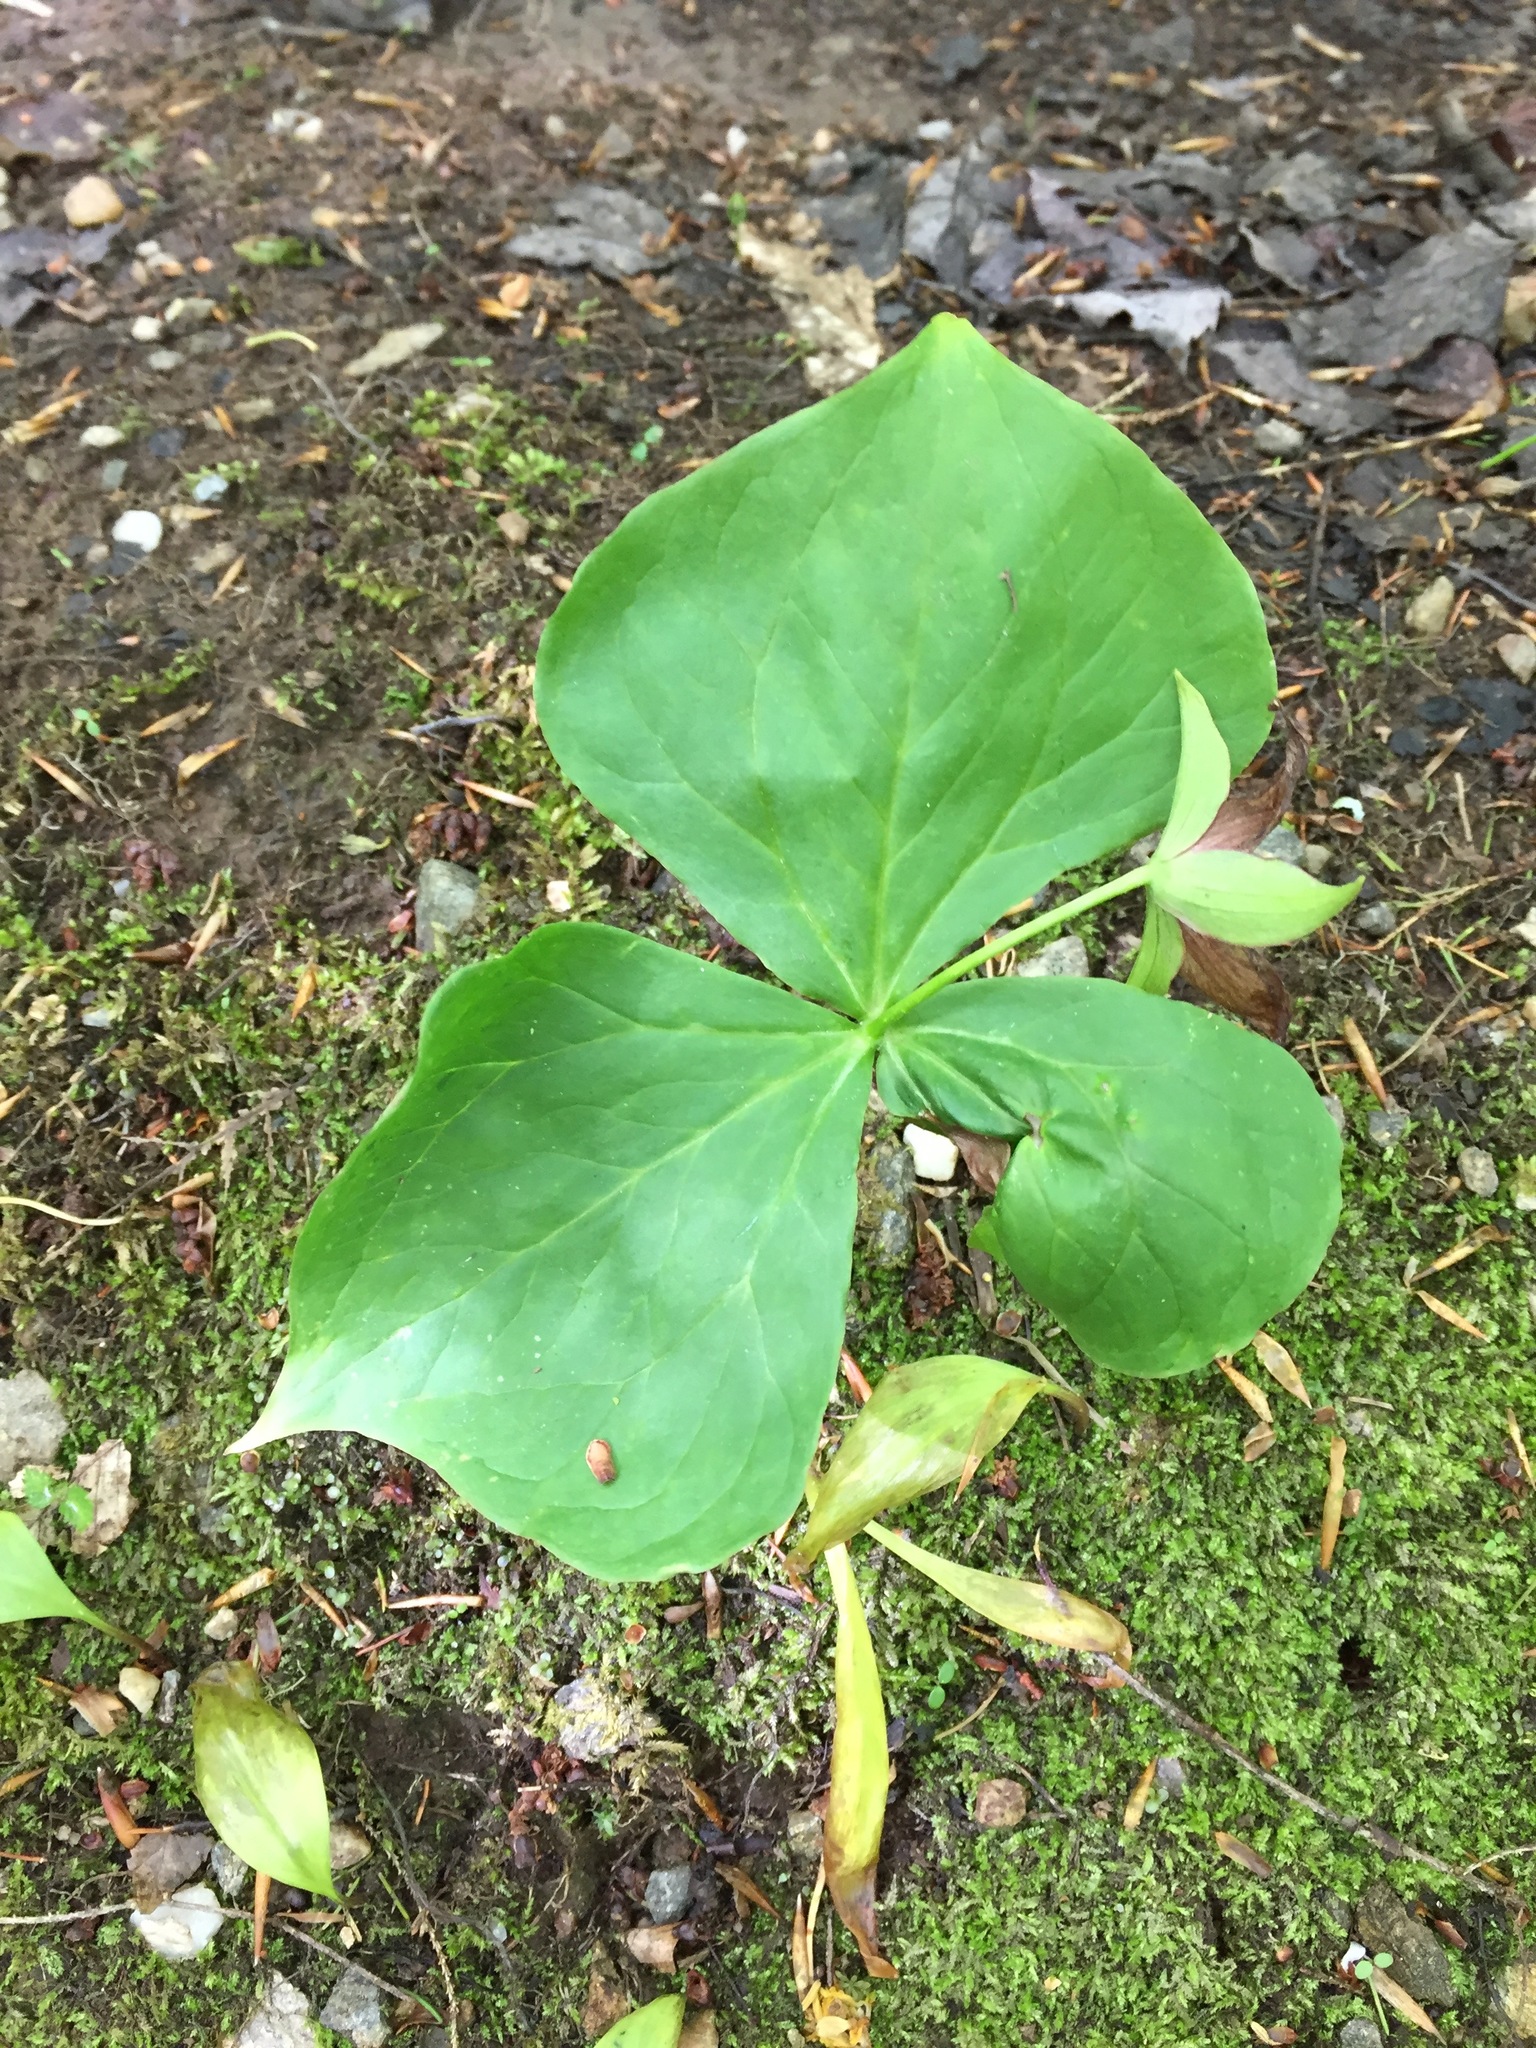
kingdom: Plantae
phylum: Tracheophyta
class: Liliopsida
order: Liliales
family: Melanthiaceae
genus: Trillium
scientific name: Trillium erectum
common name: Purple trillium
